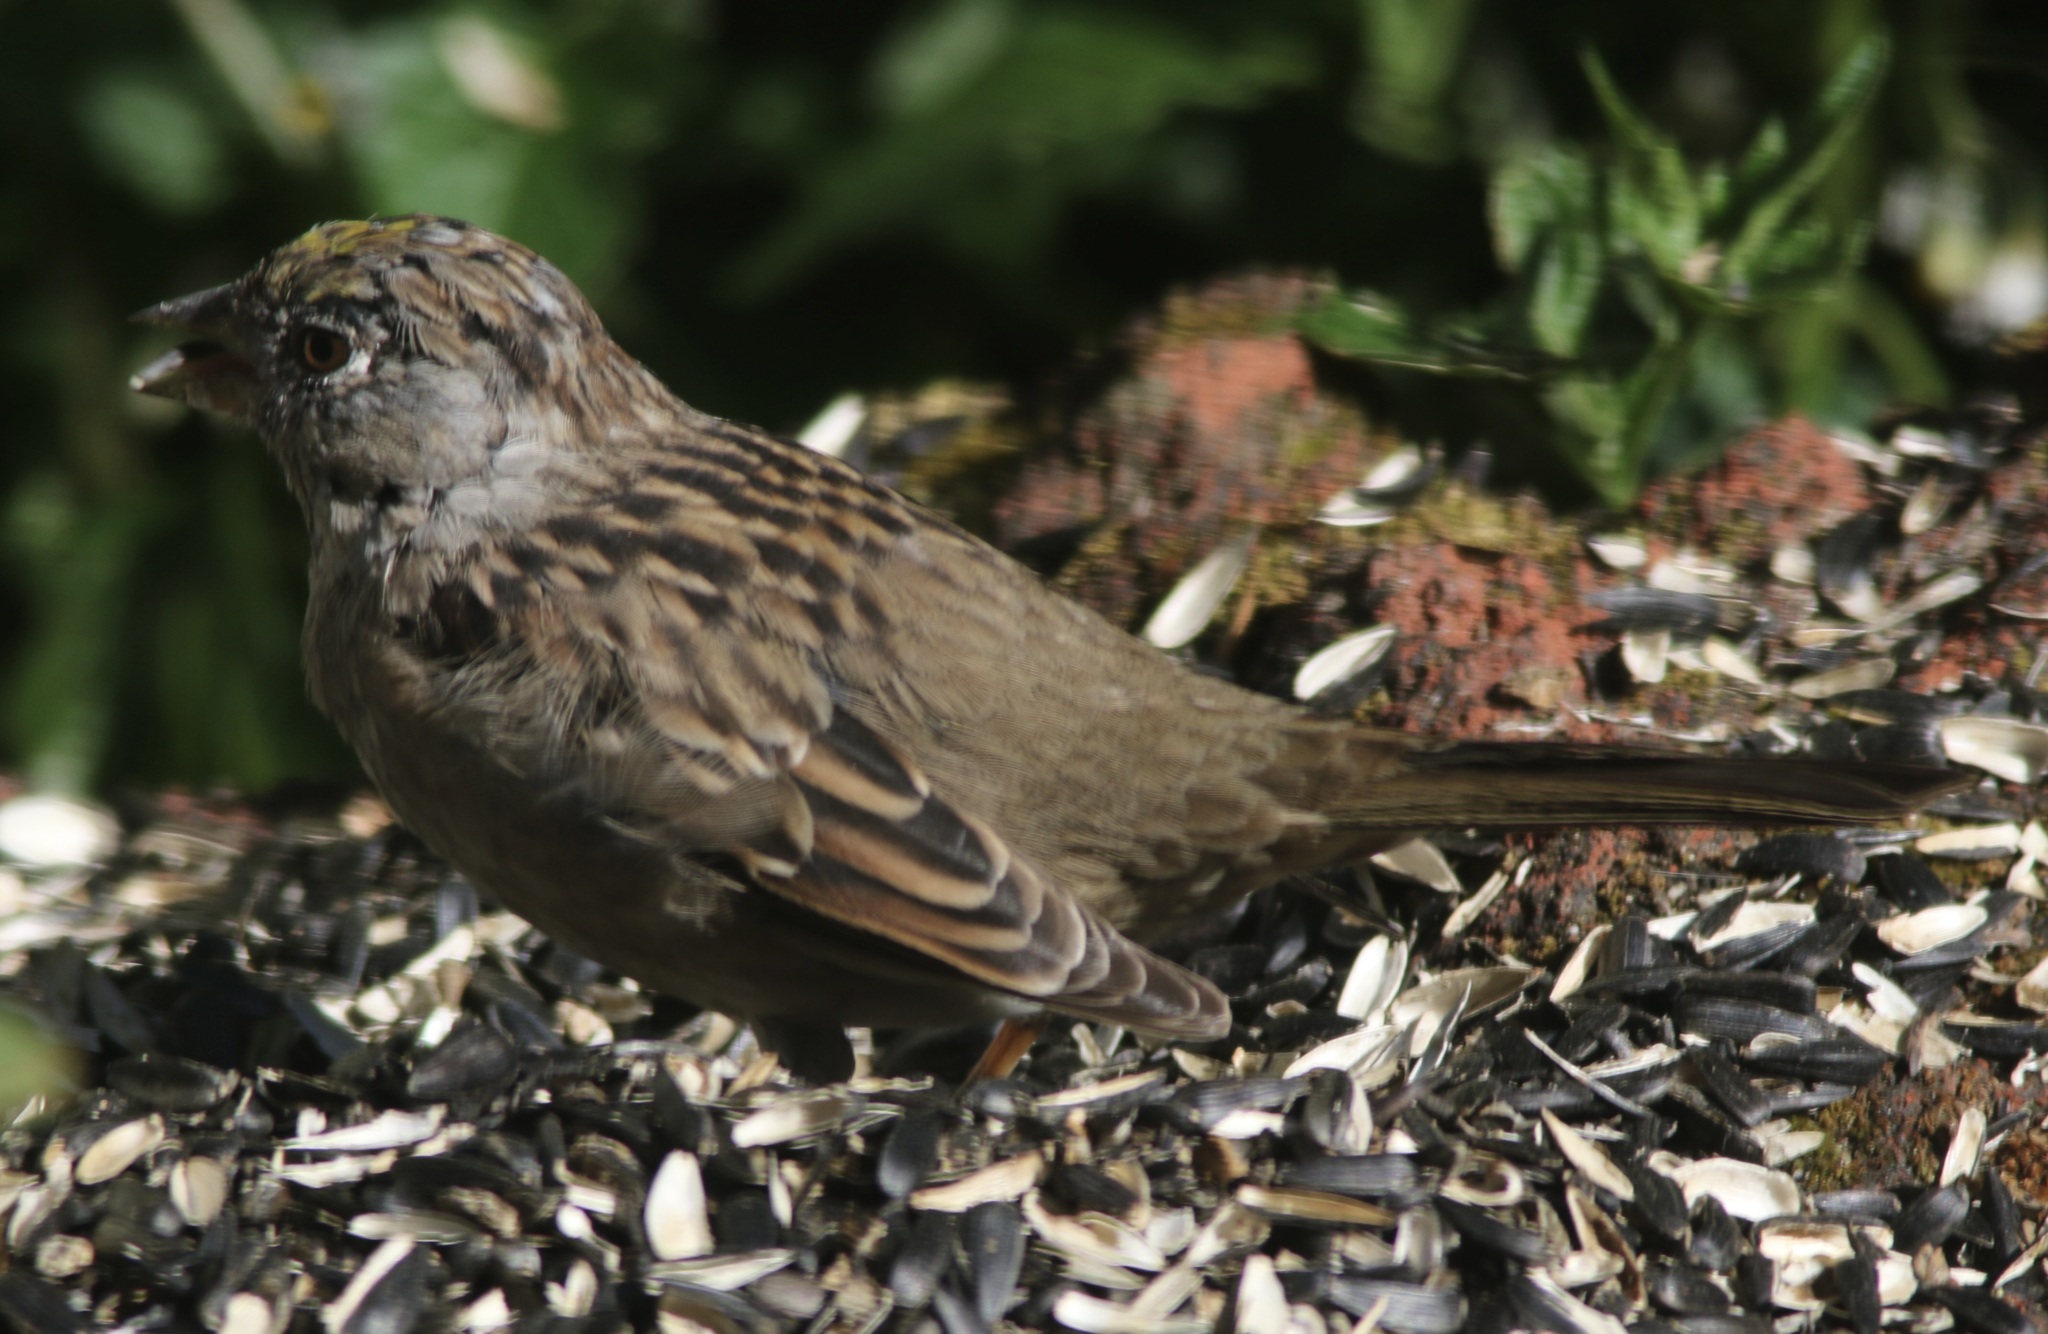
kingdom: Animalia
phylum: Chordata
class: Aves
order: Passeriformes
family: Passerellidae
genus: Zonotrichia
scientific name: Zonotrichia atricapilla
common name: Golden-crowned sparrow
